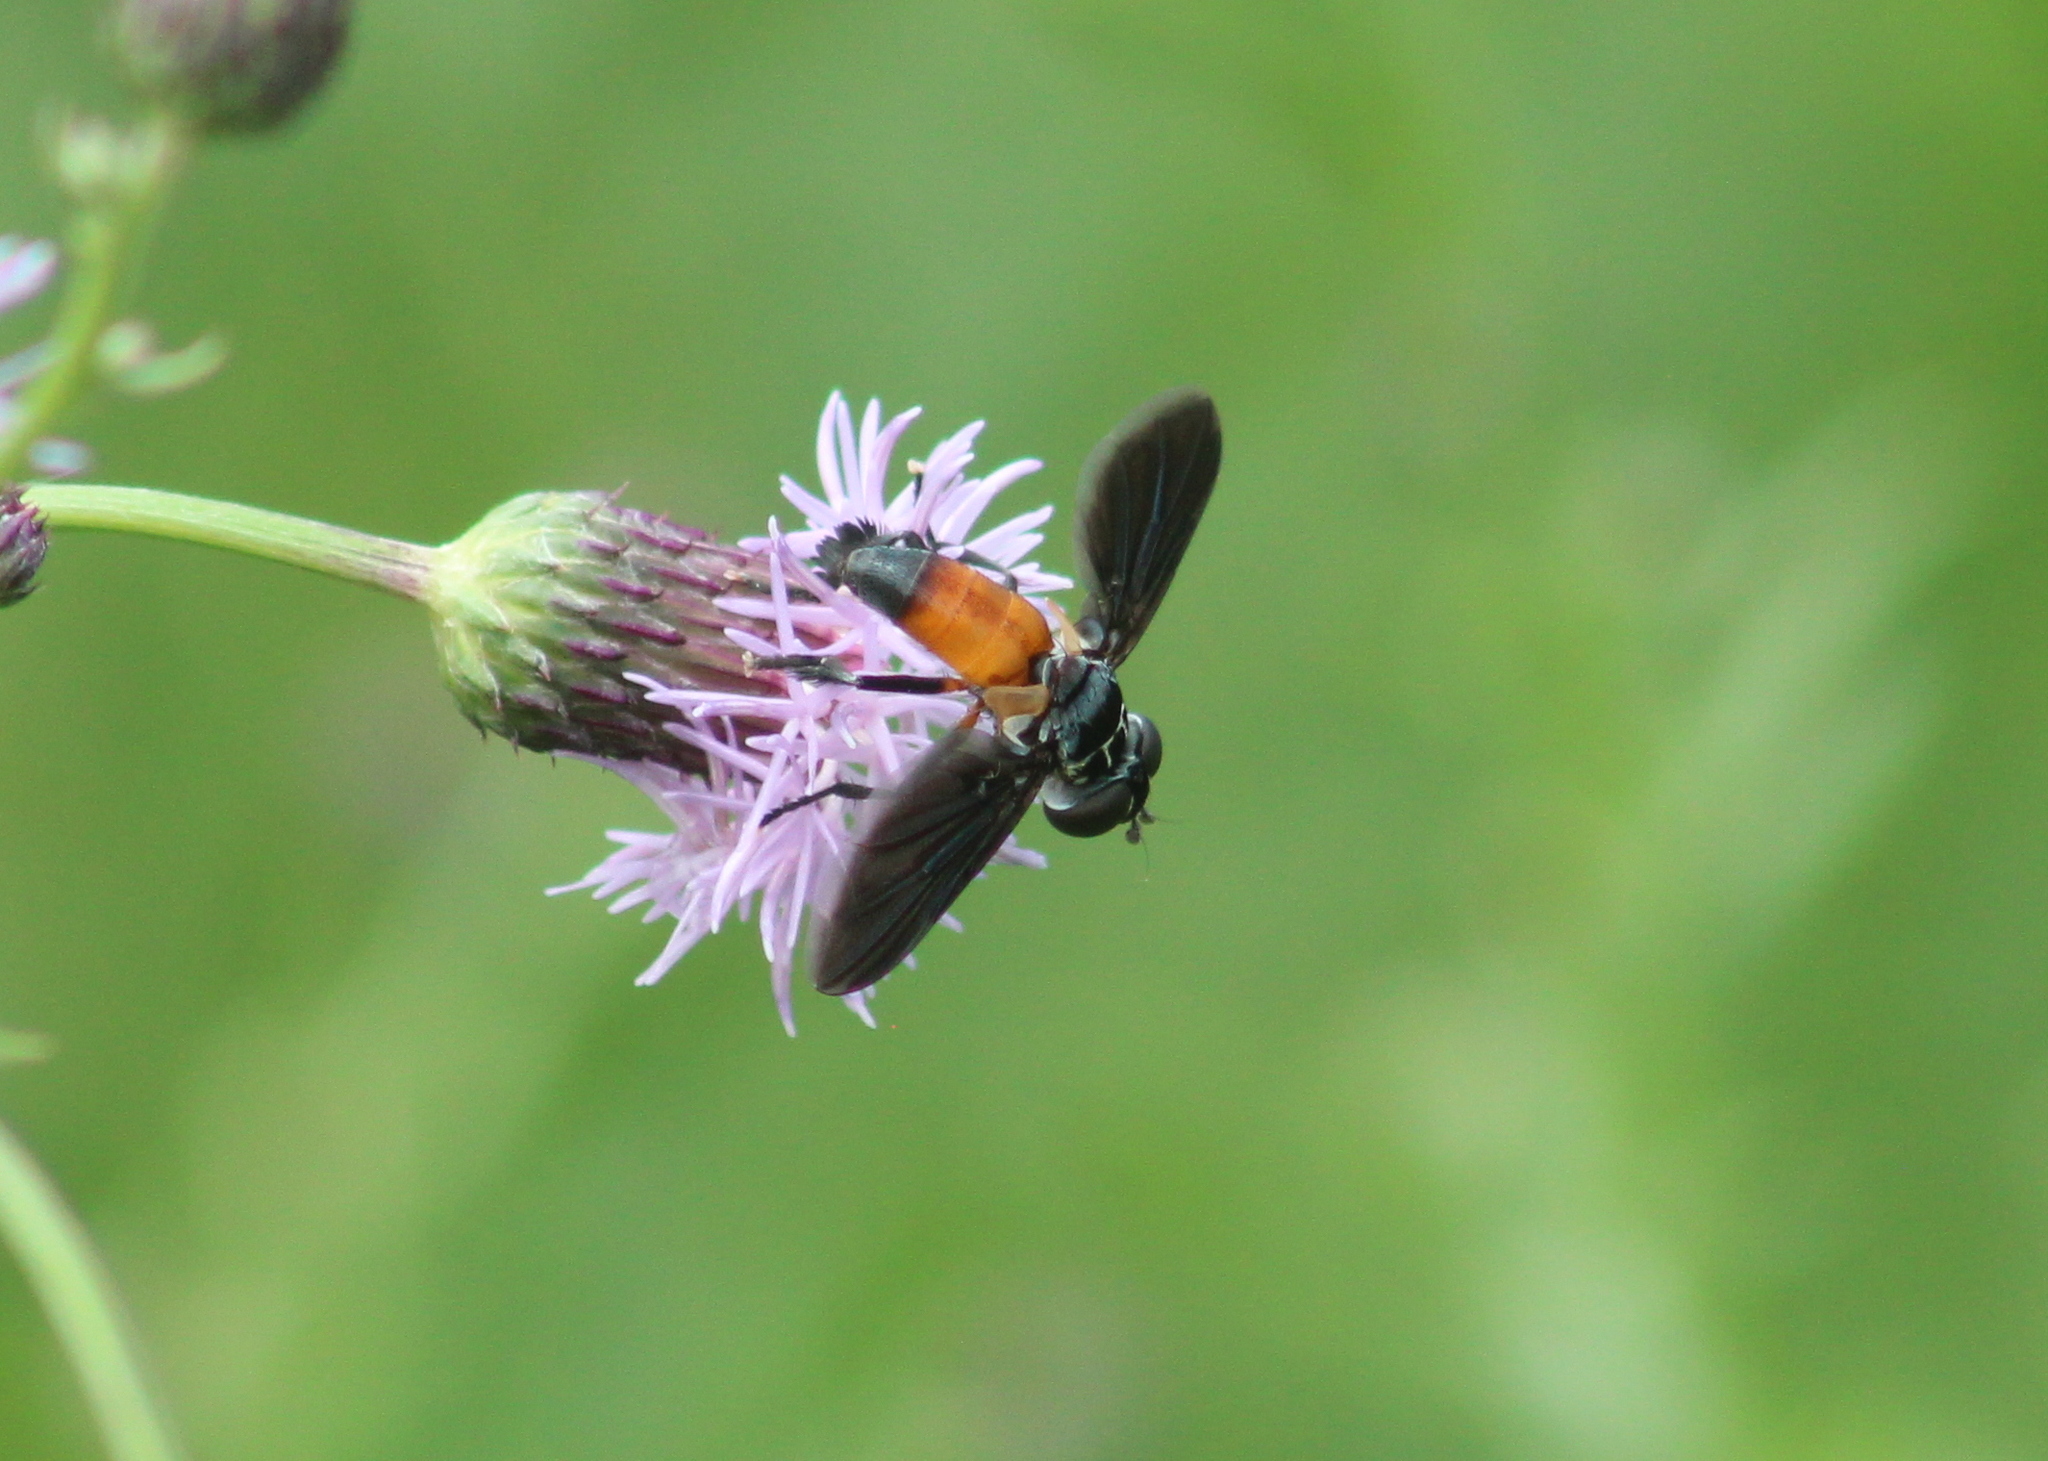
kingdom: Animalia
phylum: Arthropoda
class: Insecta
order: Diptera
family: Tachinidae
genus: Trichopoda
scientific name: Trichopoda pennipes
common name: Tachinid fly
